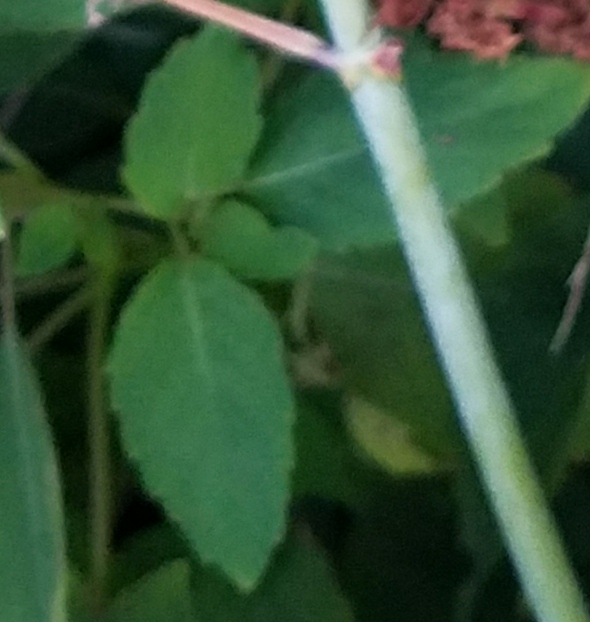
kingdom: Plantae
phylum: Tracheophyta
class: Magnoliopsida
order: Ericales
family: Balsaminaceae
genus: Impatiens
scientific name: Impatiens capensis
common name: Orange balsam
